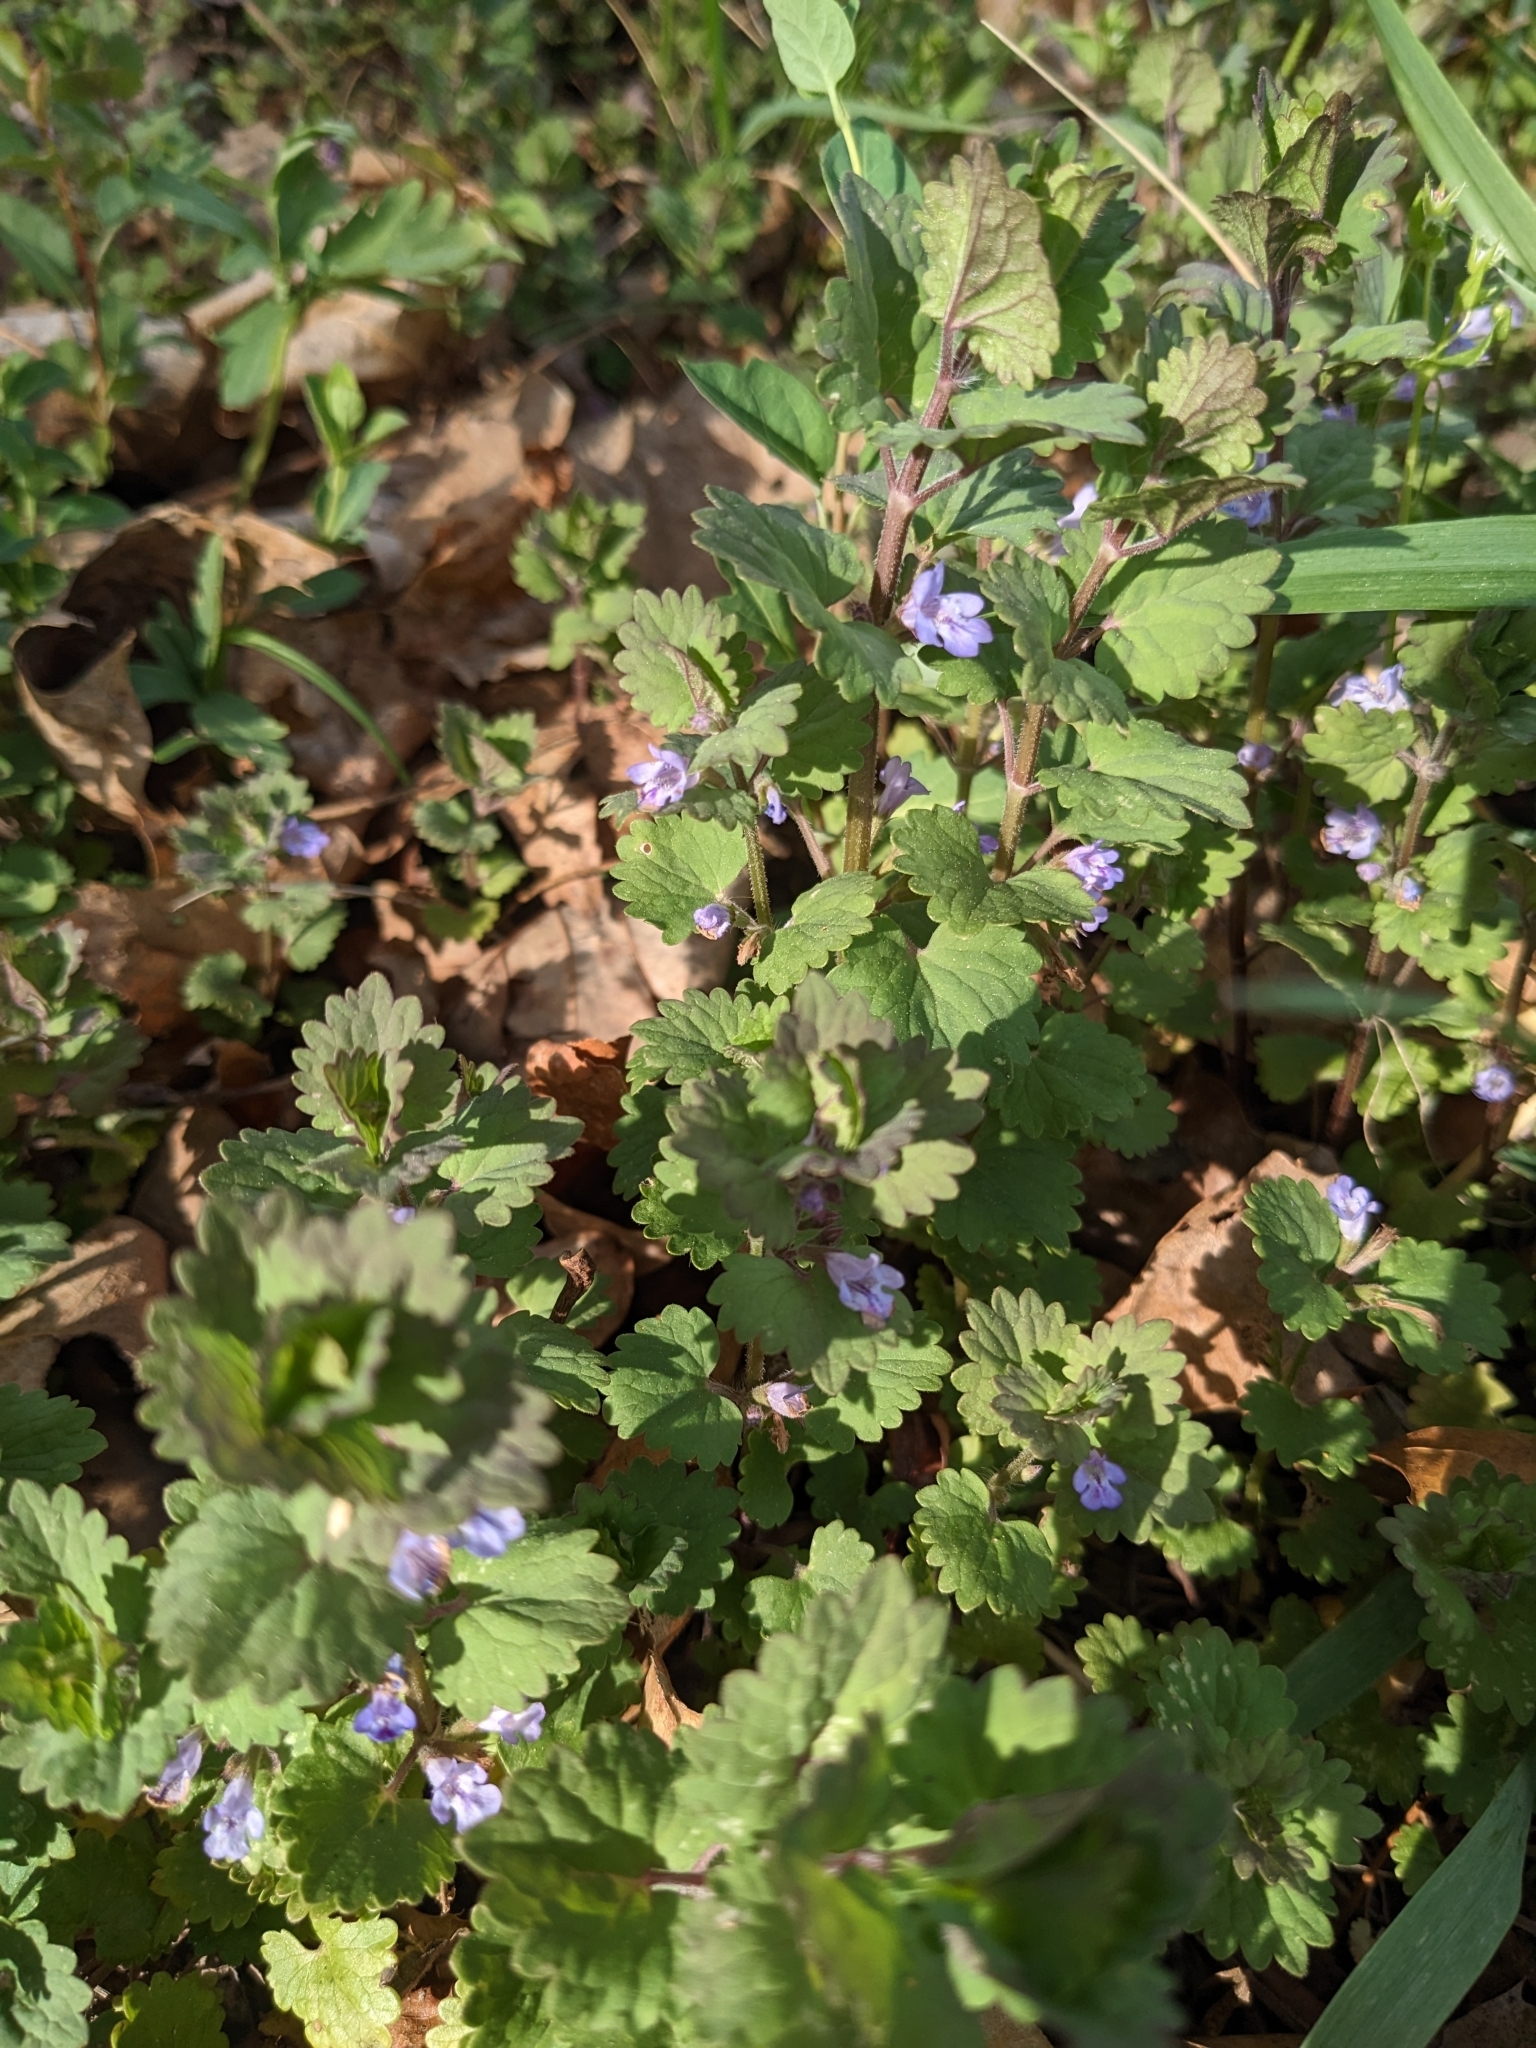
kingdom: Plantae
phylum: Tracheophyta
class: Magnoliopsida
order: Lamiales
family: Lamiaceae
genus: Glechoma
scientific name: Glechoma hederacea
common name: Ground ivy
